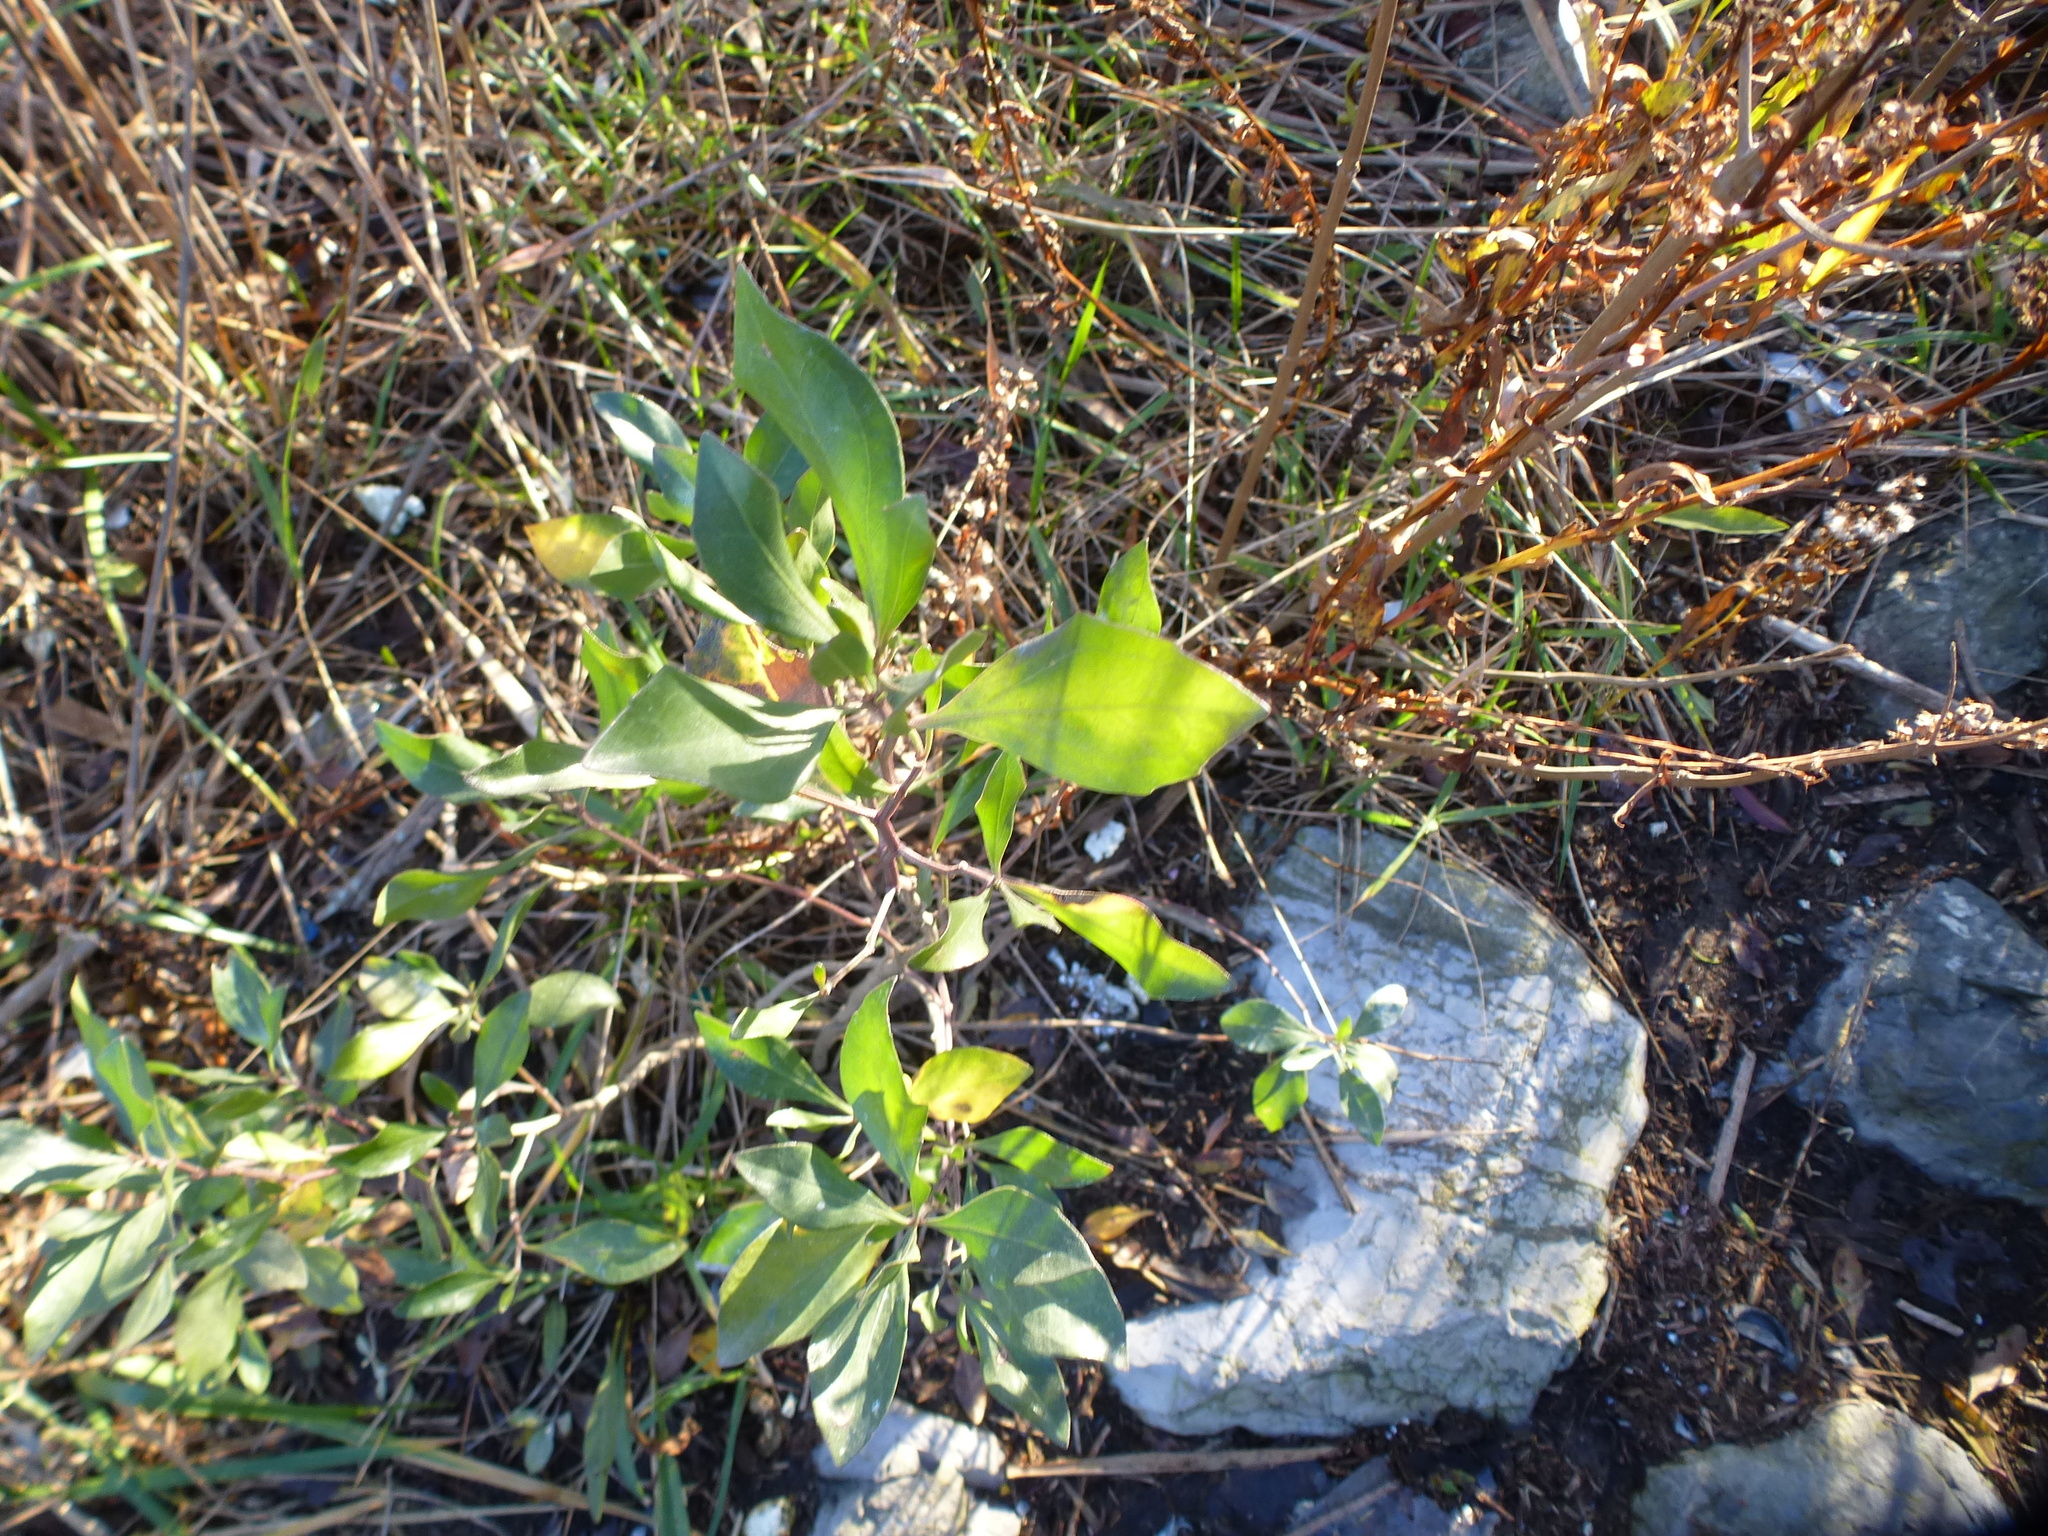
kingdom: Plantae
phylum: Tracheophyta
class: Magnoliopsida
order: Asterales
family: Asteraceae
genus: Baccharis
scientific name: Baccharis halimifolia
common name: Eastern baccharis
